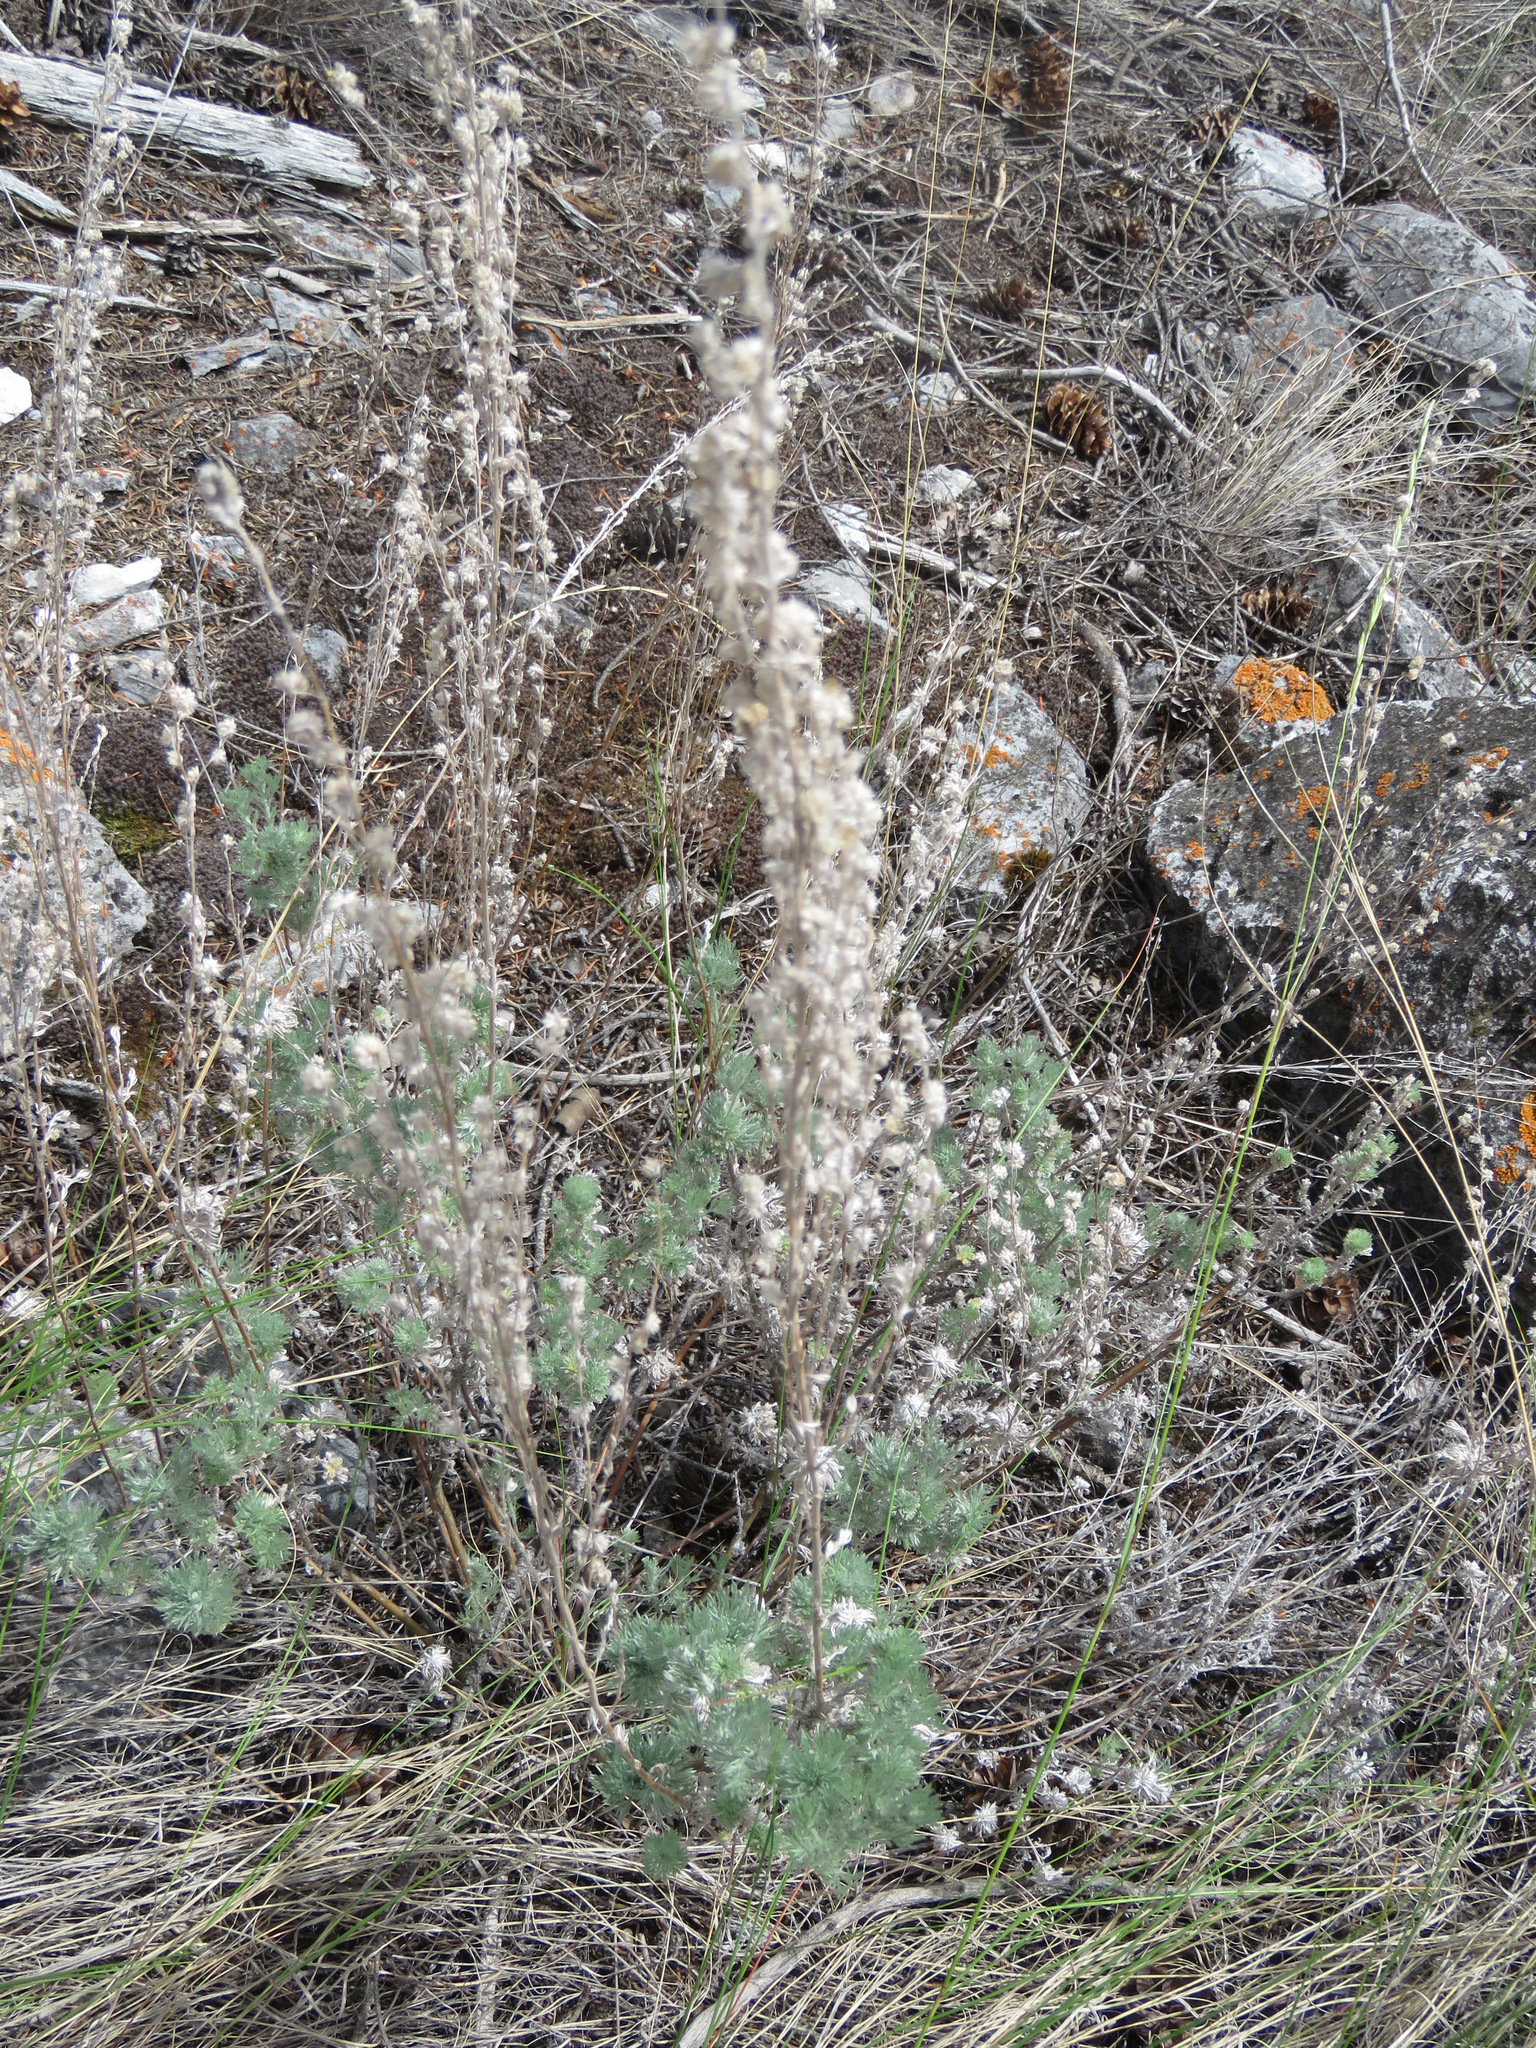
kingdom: Plantae
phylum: Tracheophyta
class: Magnoliopsida
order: Asterales
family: Asteraceae
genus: Artemisia
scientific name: Artemisia frigida
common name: Prairie sagewort
